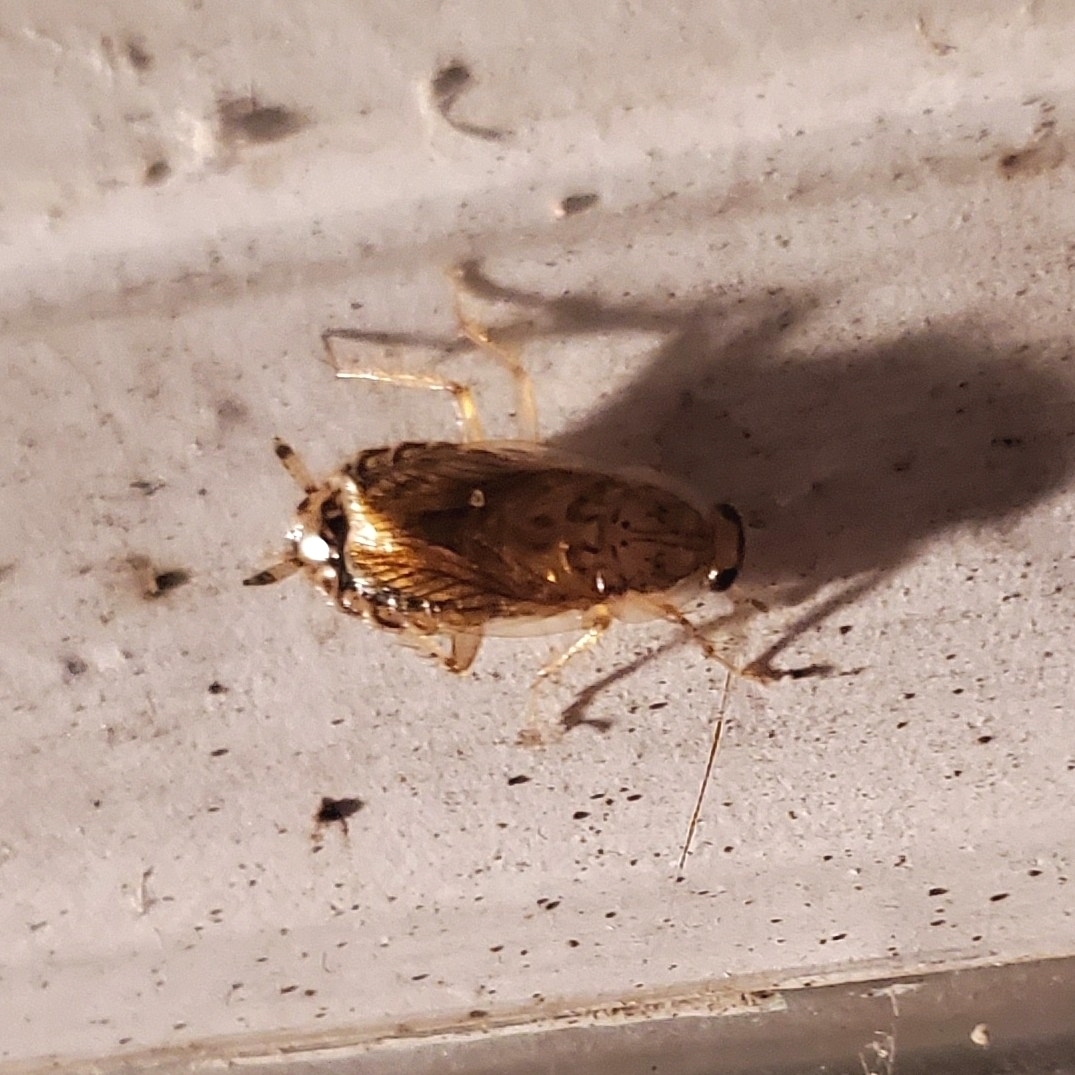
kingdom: Animalia
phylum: Arthropoda
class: Insecta
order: Blattodea
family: Ectobiidae
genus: Cariblatta
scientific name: Cariblatta lutea
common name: Small yellow cockroach
